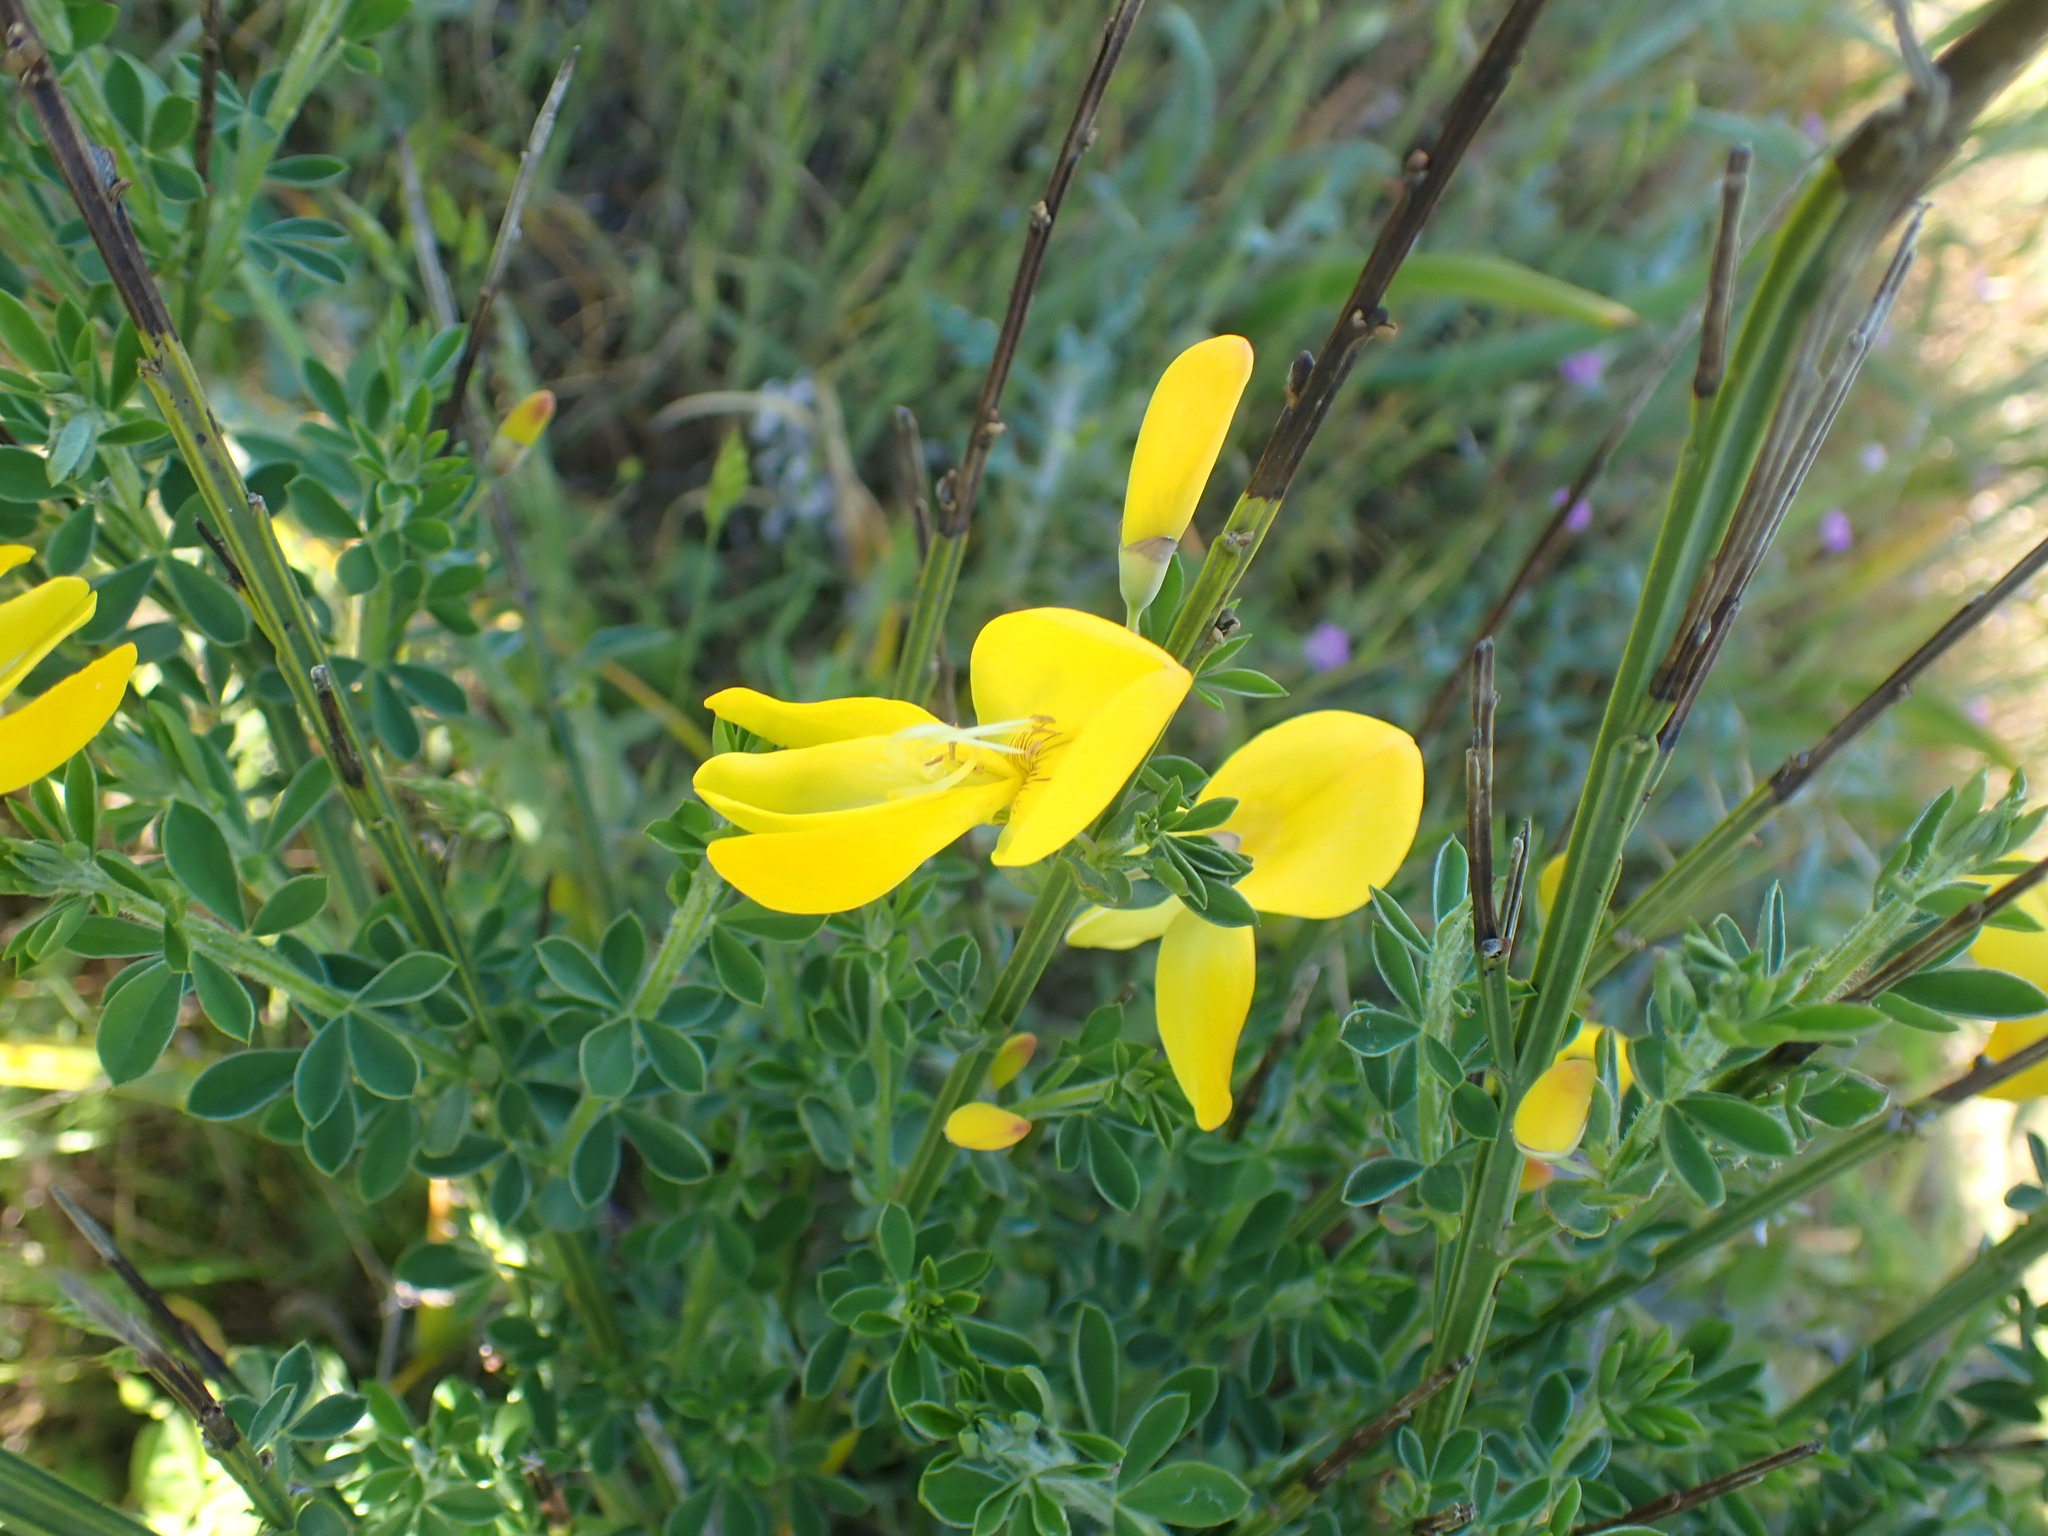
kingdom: Plantae
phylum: Tracheophyta
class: Magnoliopsida
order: Fabales
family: Fabaceae
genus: Cytisus
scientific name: Cytisus scoparius
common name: Scotch broom
